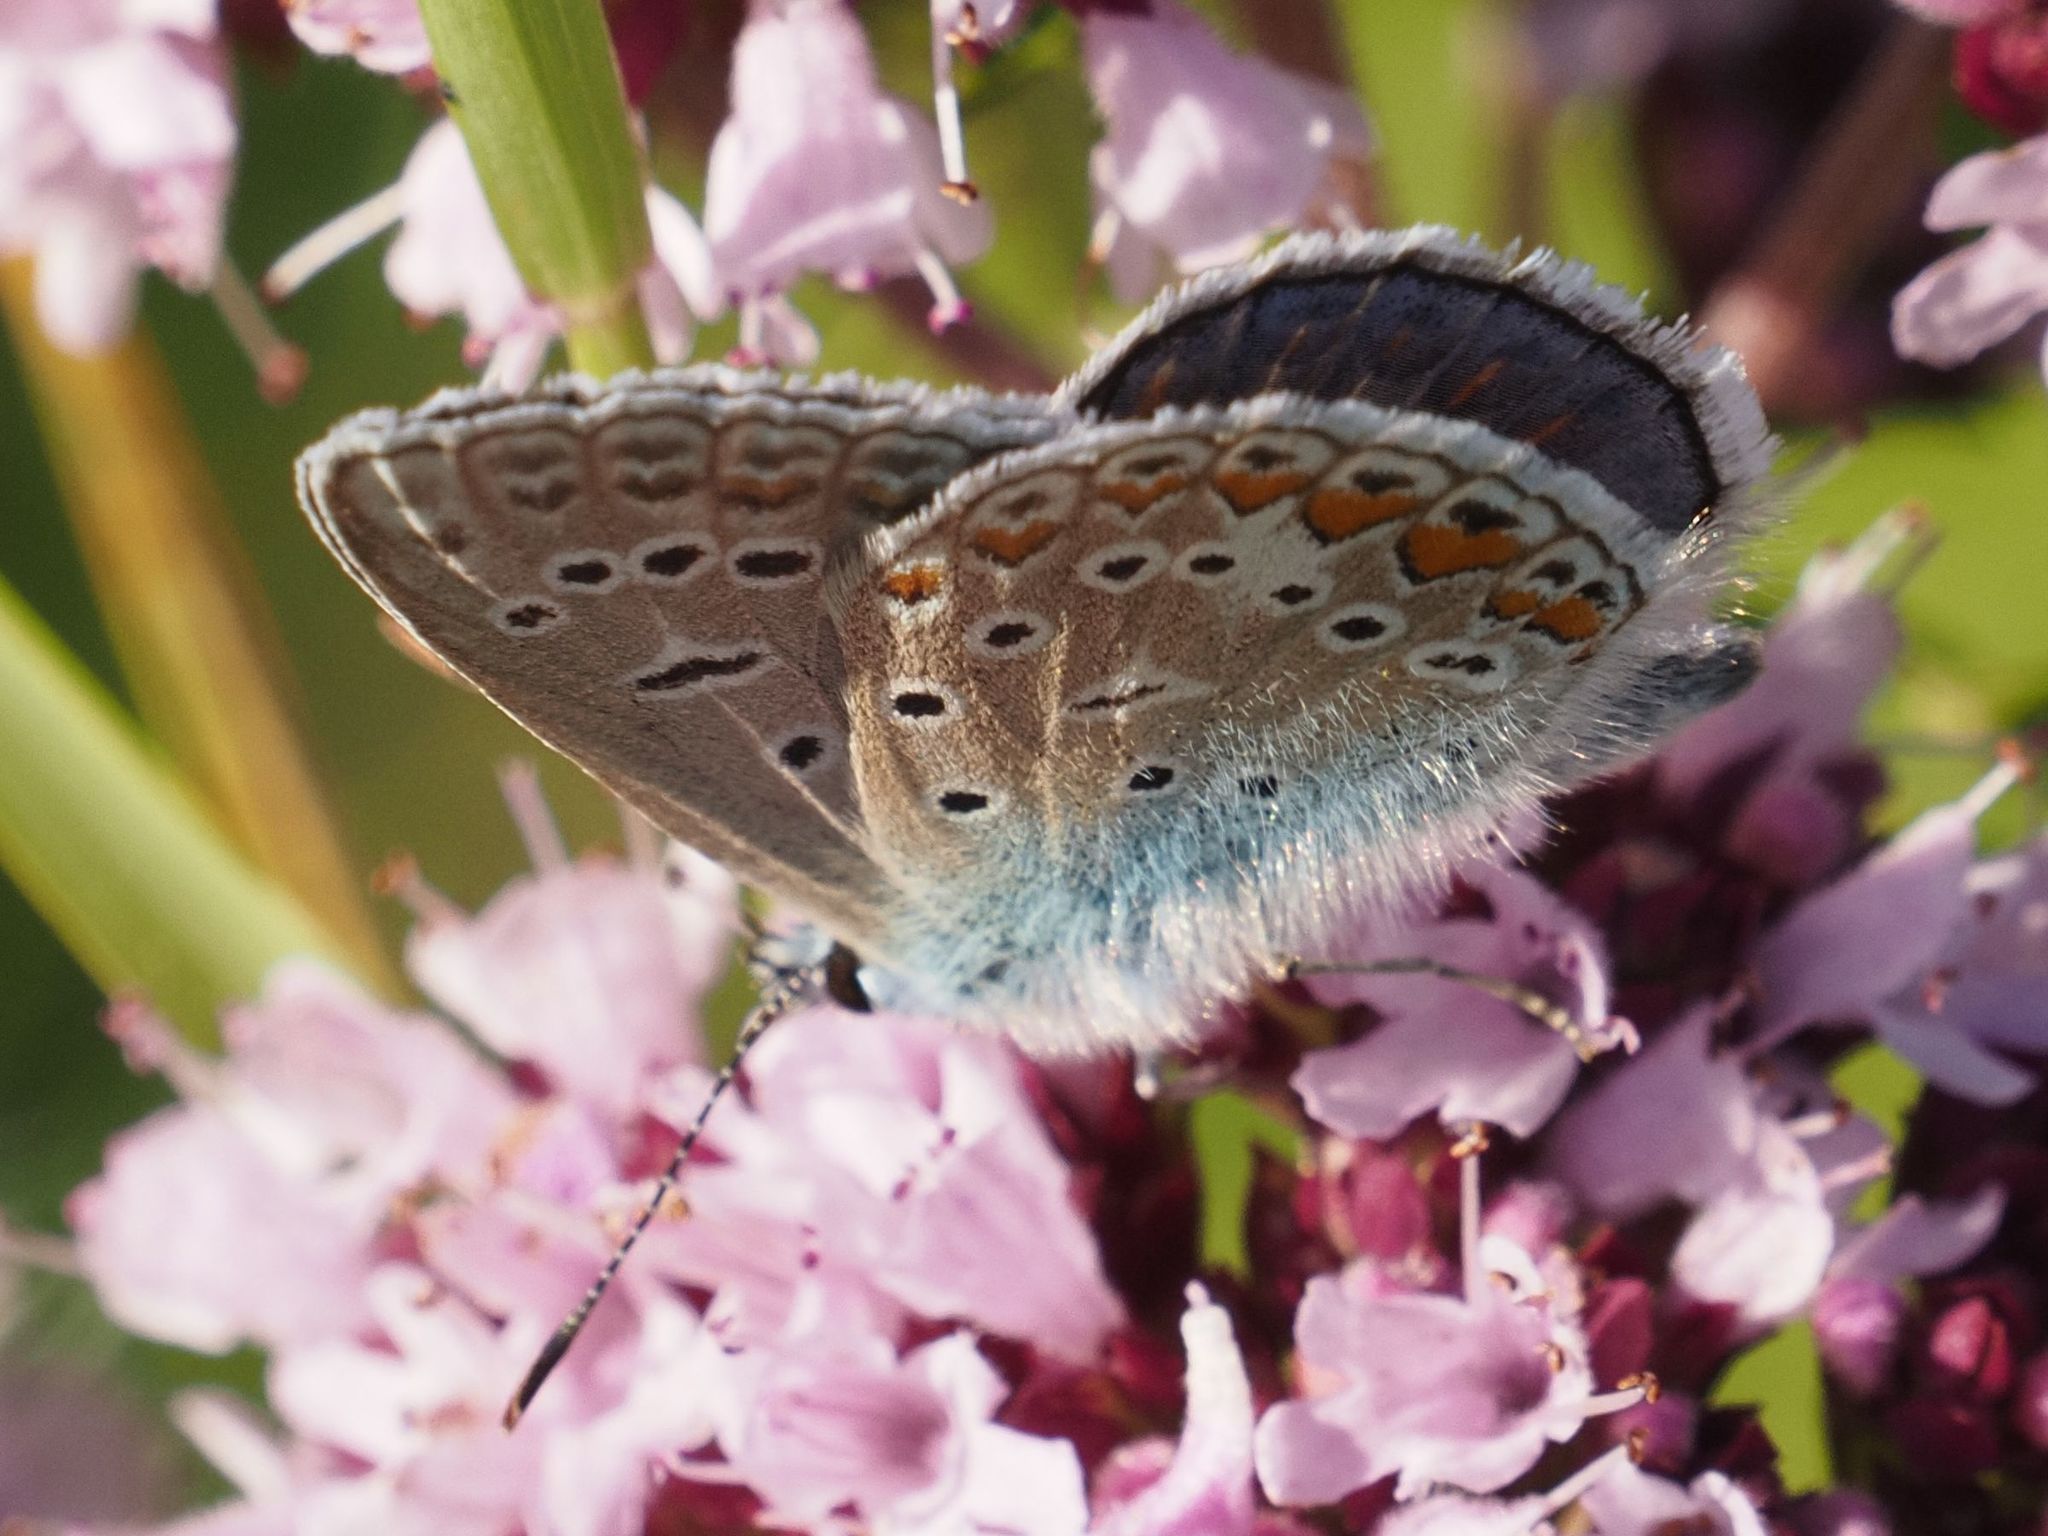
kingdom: Animalia
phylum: Arthropoda
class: Insecta
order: Lepidoptera
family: Lycaenidae
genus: Polyommatus
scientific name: Polyommatus icarus
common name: Common blue
